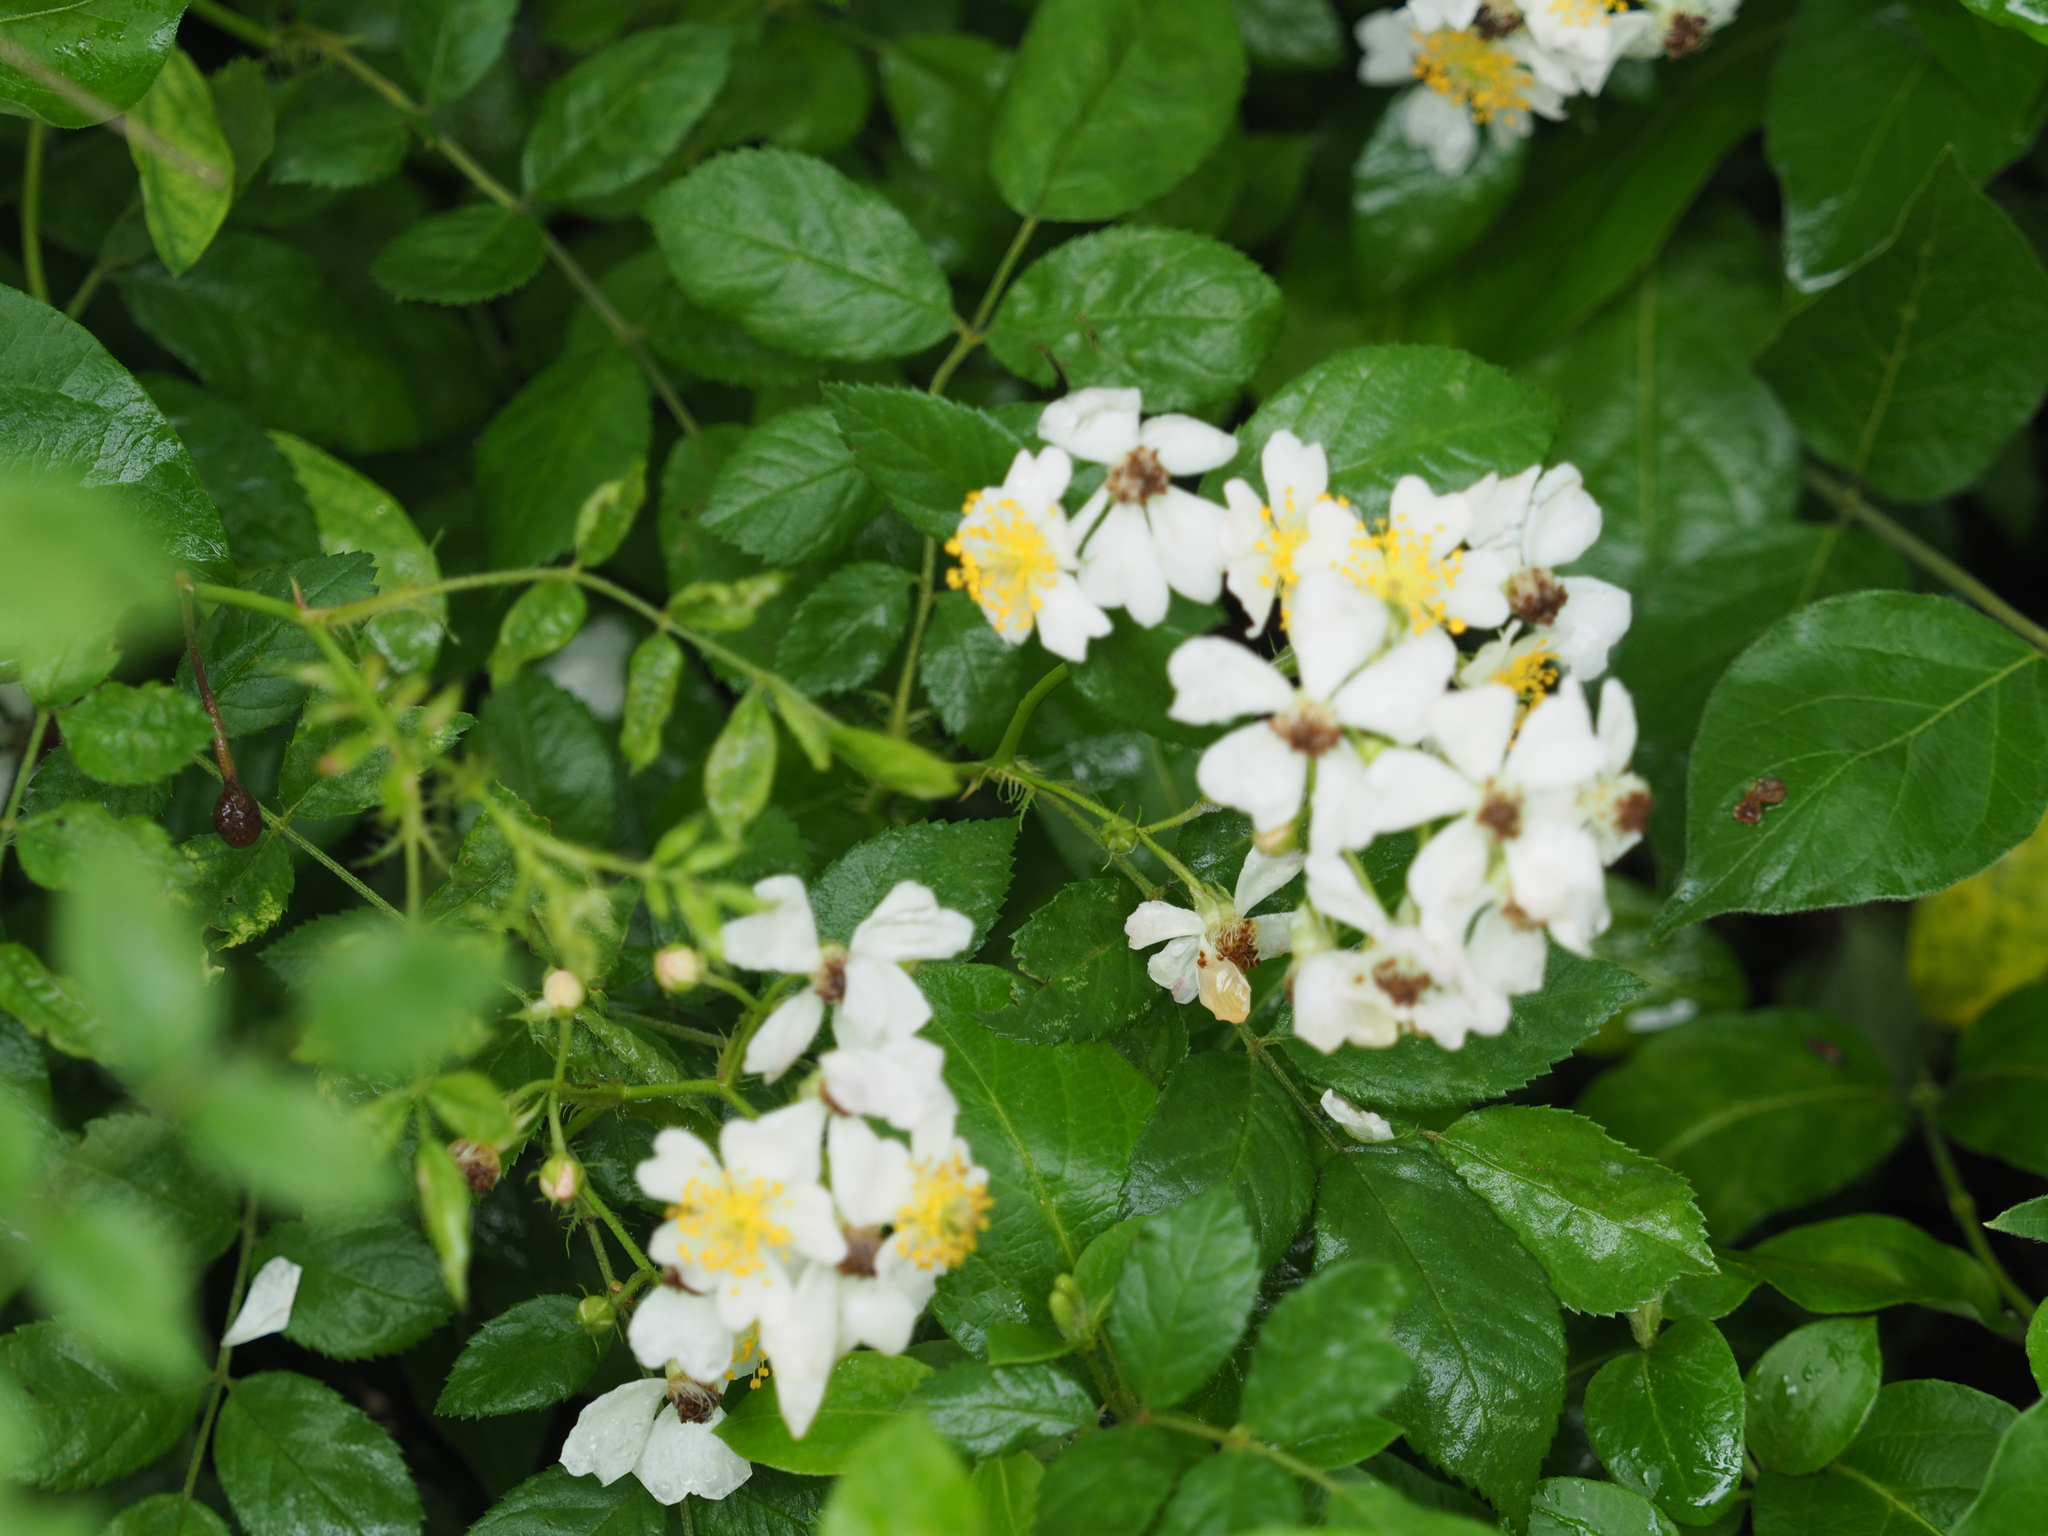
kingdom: Plantae
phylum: Tracheophyta
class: Magnoliopsida
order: Rosales
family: Rosaceae
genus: Rosa
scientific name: Rosa multiflora
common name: Multiflora rose
